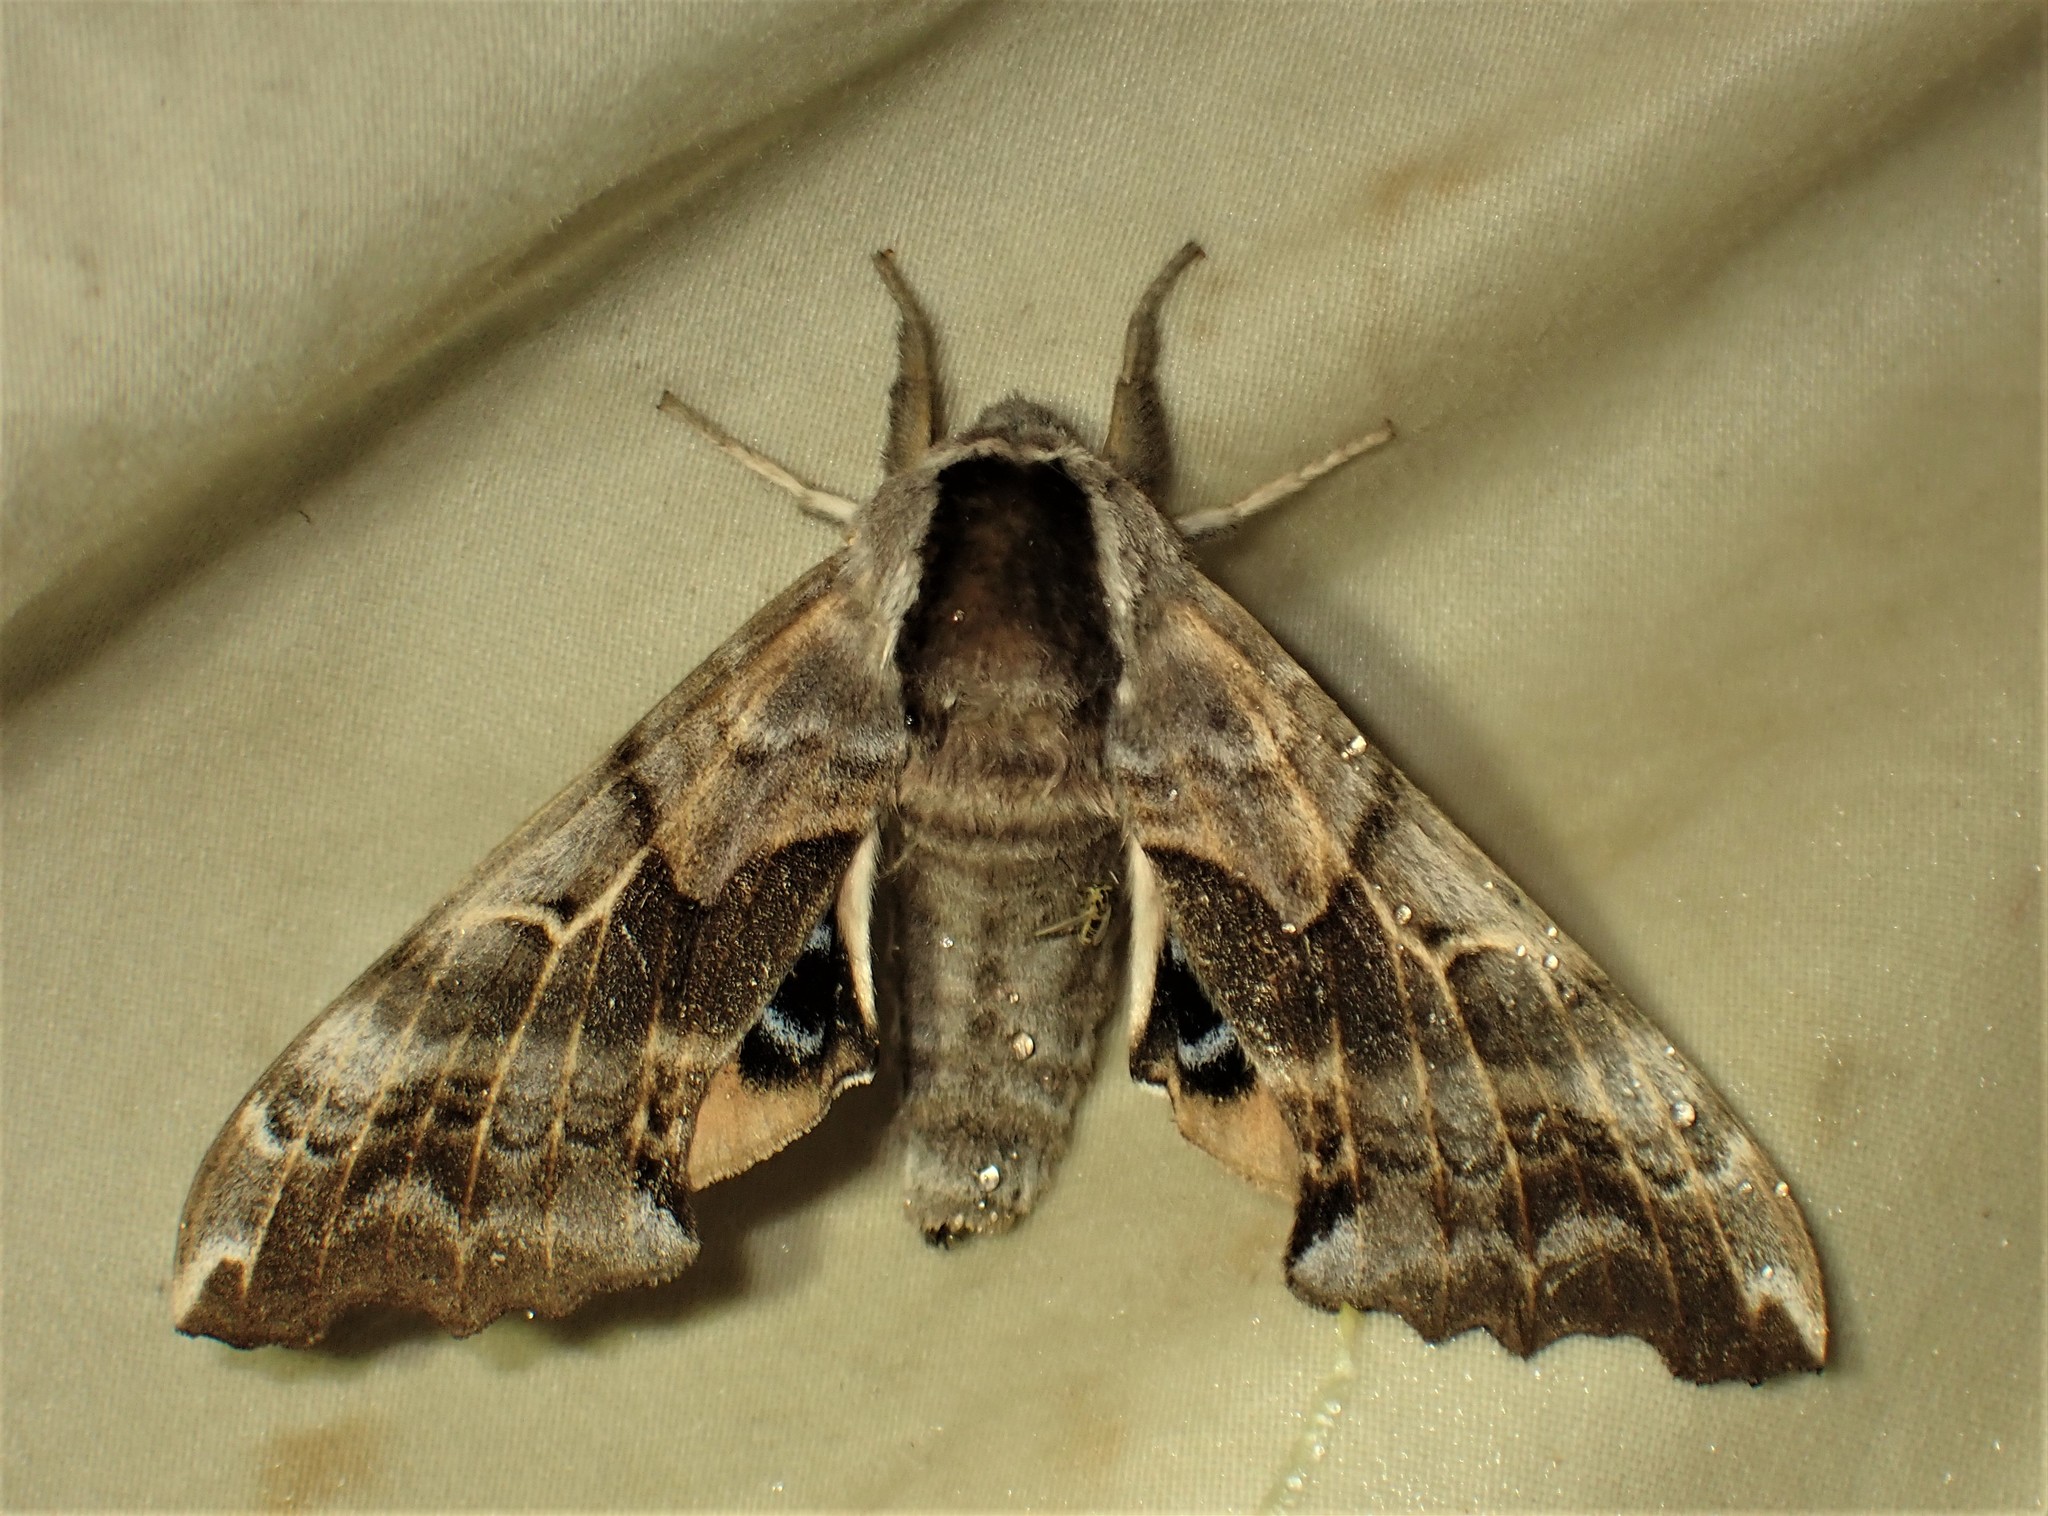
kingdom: Animalia
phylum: Arthropoda
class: Insecta
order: Lepidoptera
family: Sphingidae
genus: Smerinthus
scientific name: Smerinthus cerisyi
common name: Cerisy's sphinx moth
